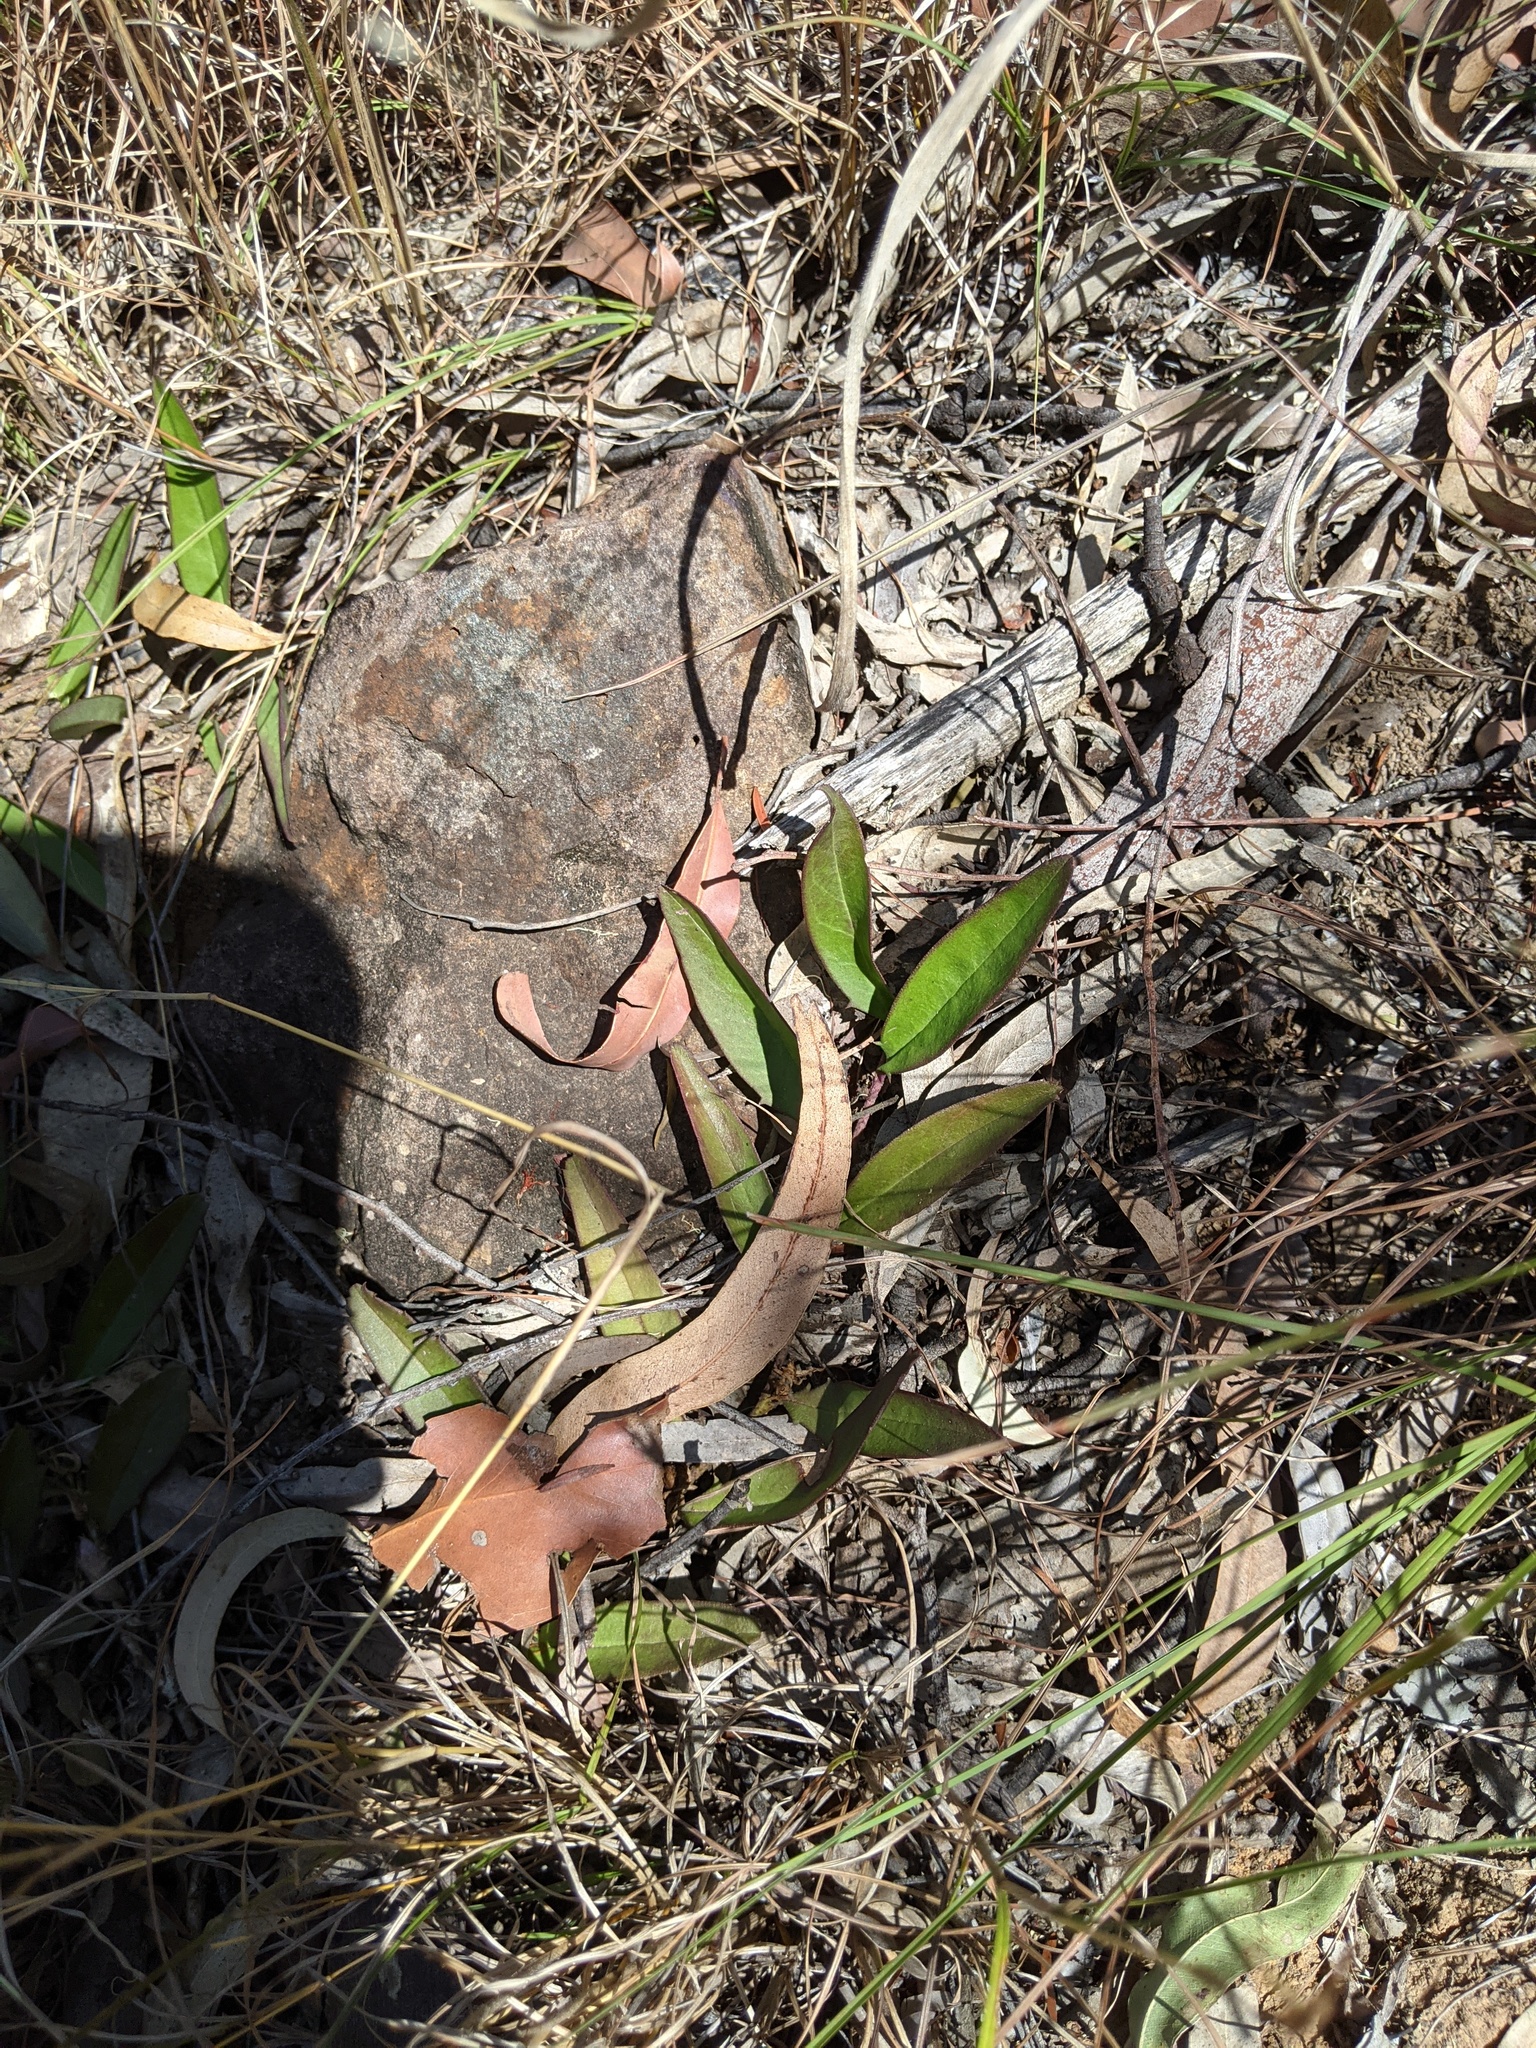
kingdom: Plantae
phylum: Tracheophyta
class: Magnoliopsida
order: Lamiales
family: Scrophulariaceae
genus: Eremophila
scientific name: Eremophila debilis
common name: Winter-apple
